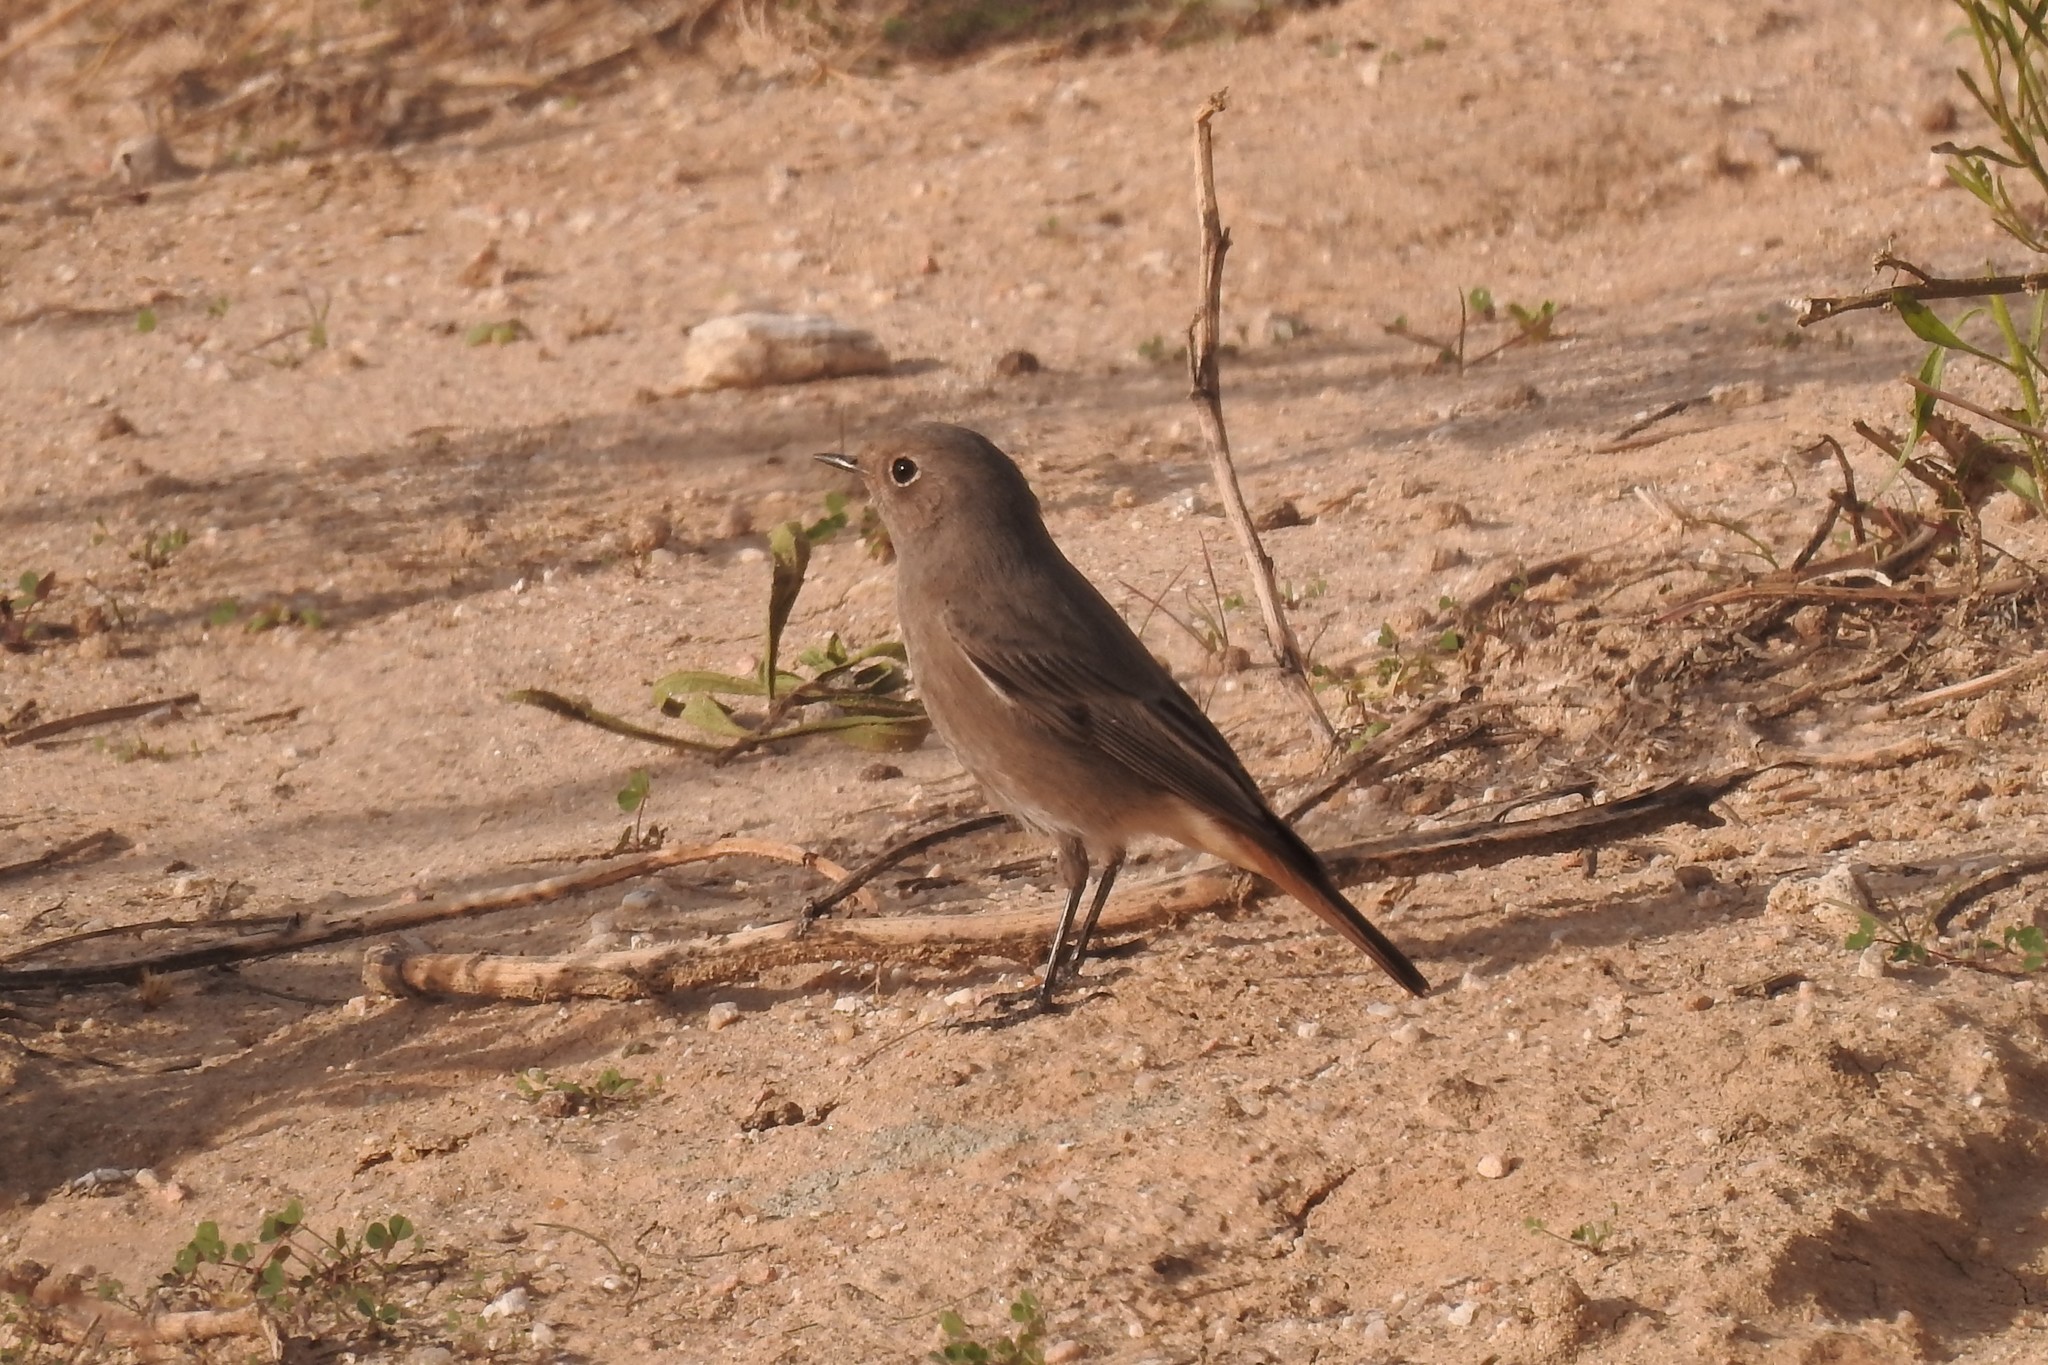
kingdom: Animalia
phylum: Chordata
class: Aves
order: Passeriformes
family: Muscicapidae
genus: Phoenicurus
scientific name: Phoenicurus ochruros
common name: Black redstart
